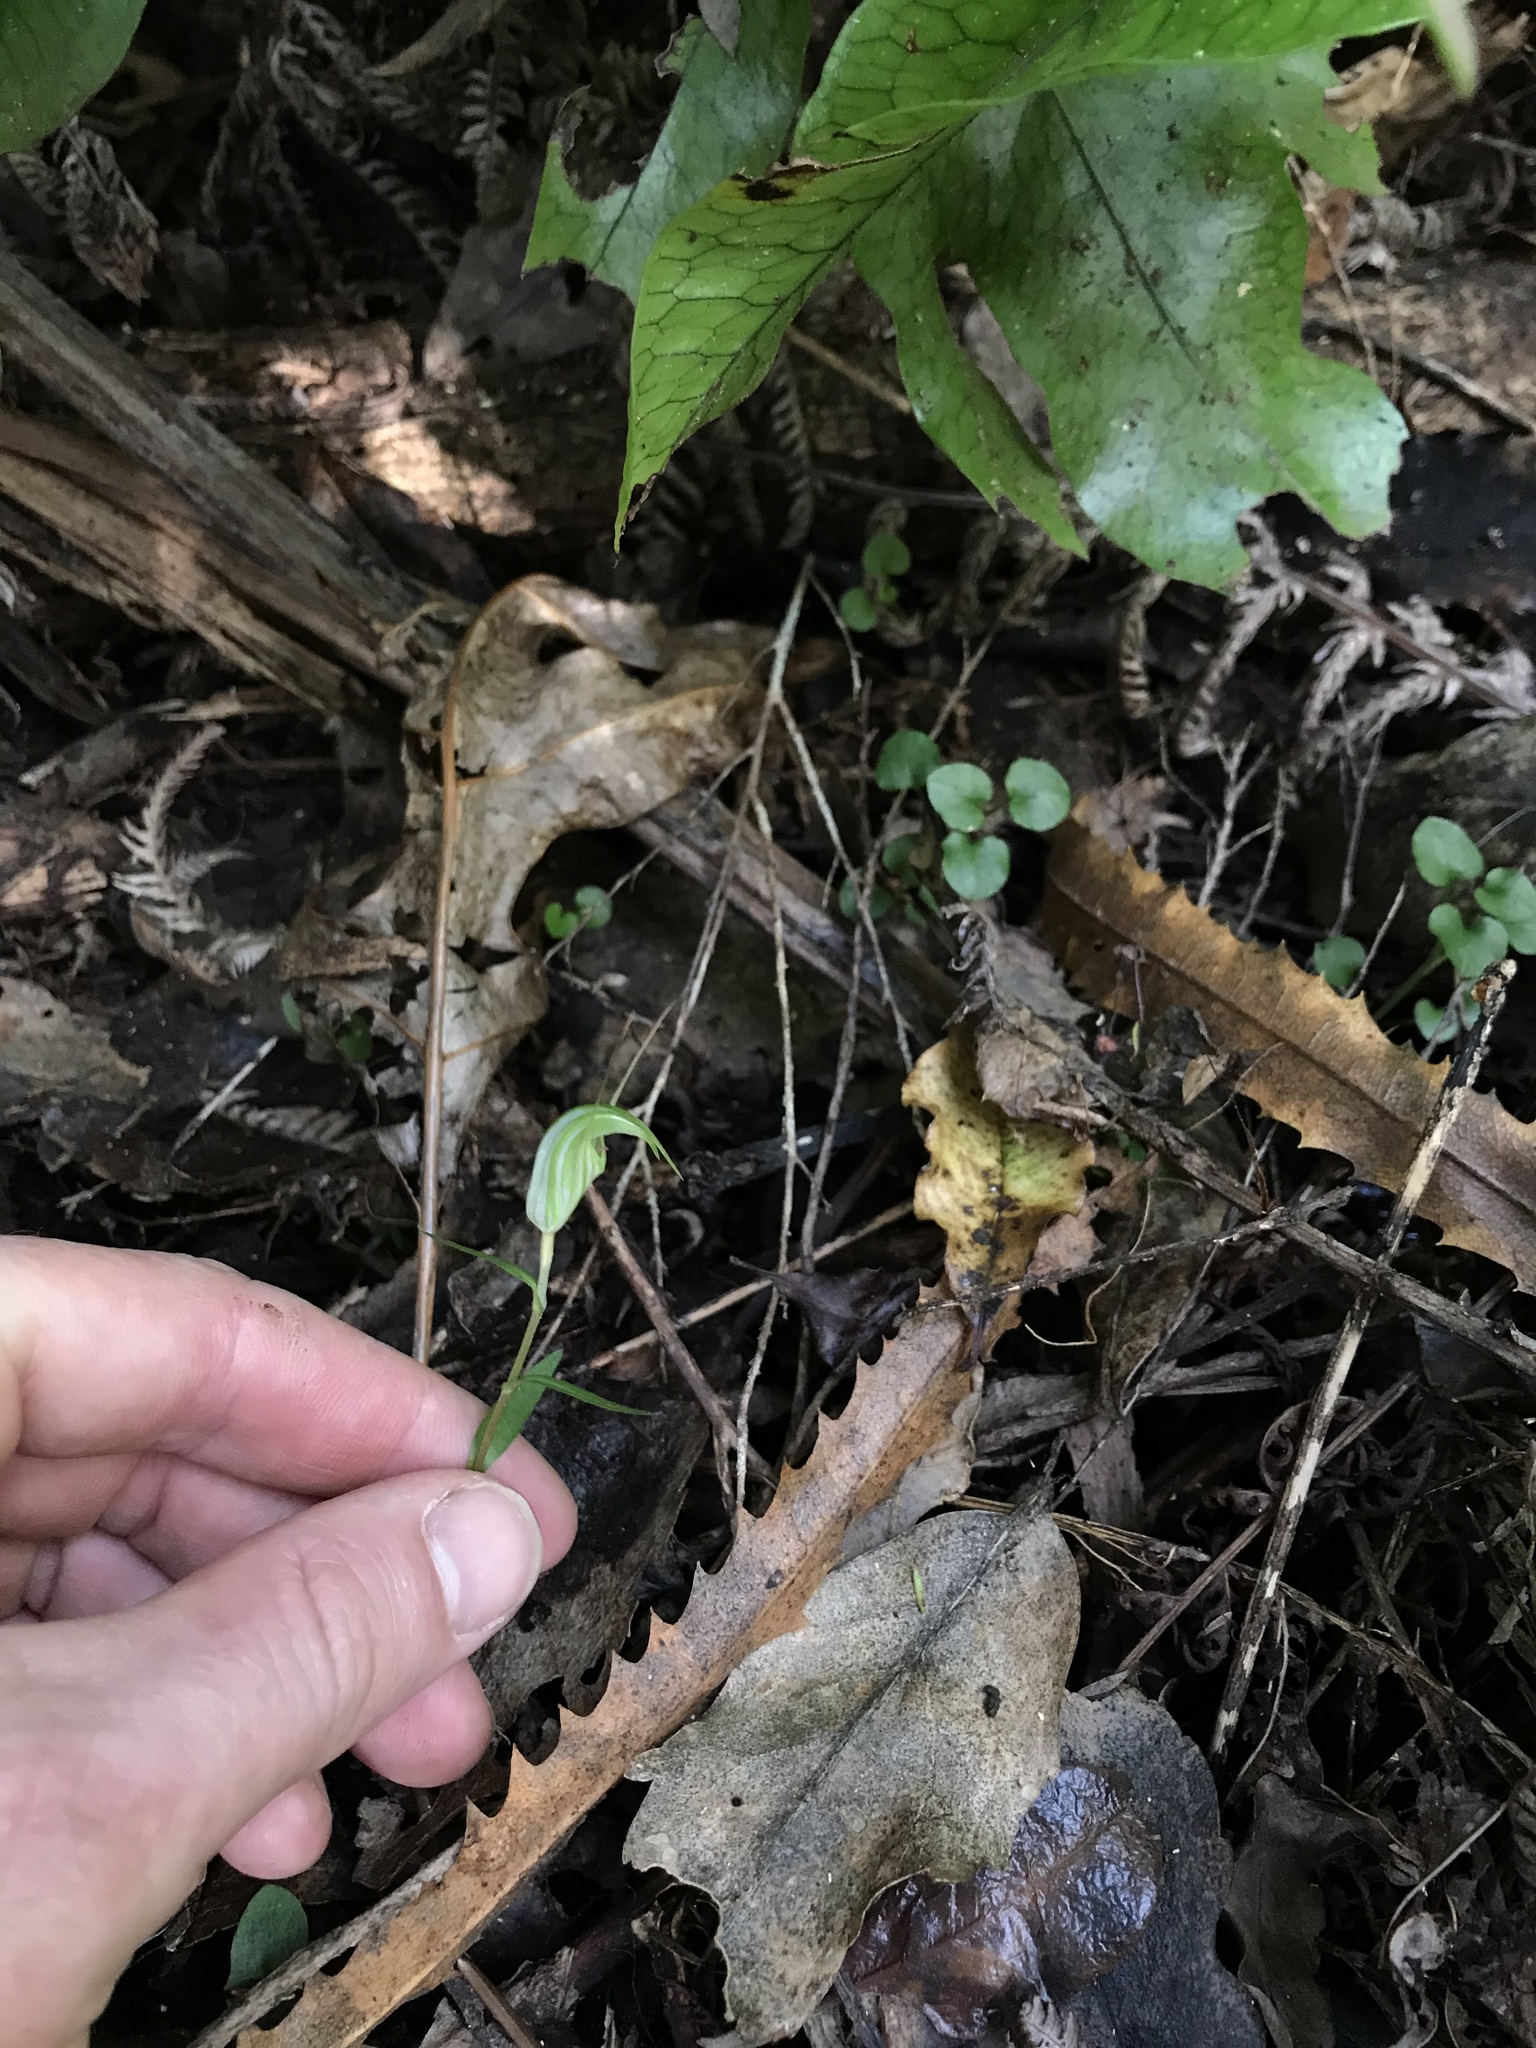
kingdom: Plantae
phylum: Tracheophyta
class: Liliopsida
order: Asparagales
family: Orchidaceae
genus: Pterostylis
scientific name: Pterostylis alobula
